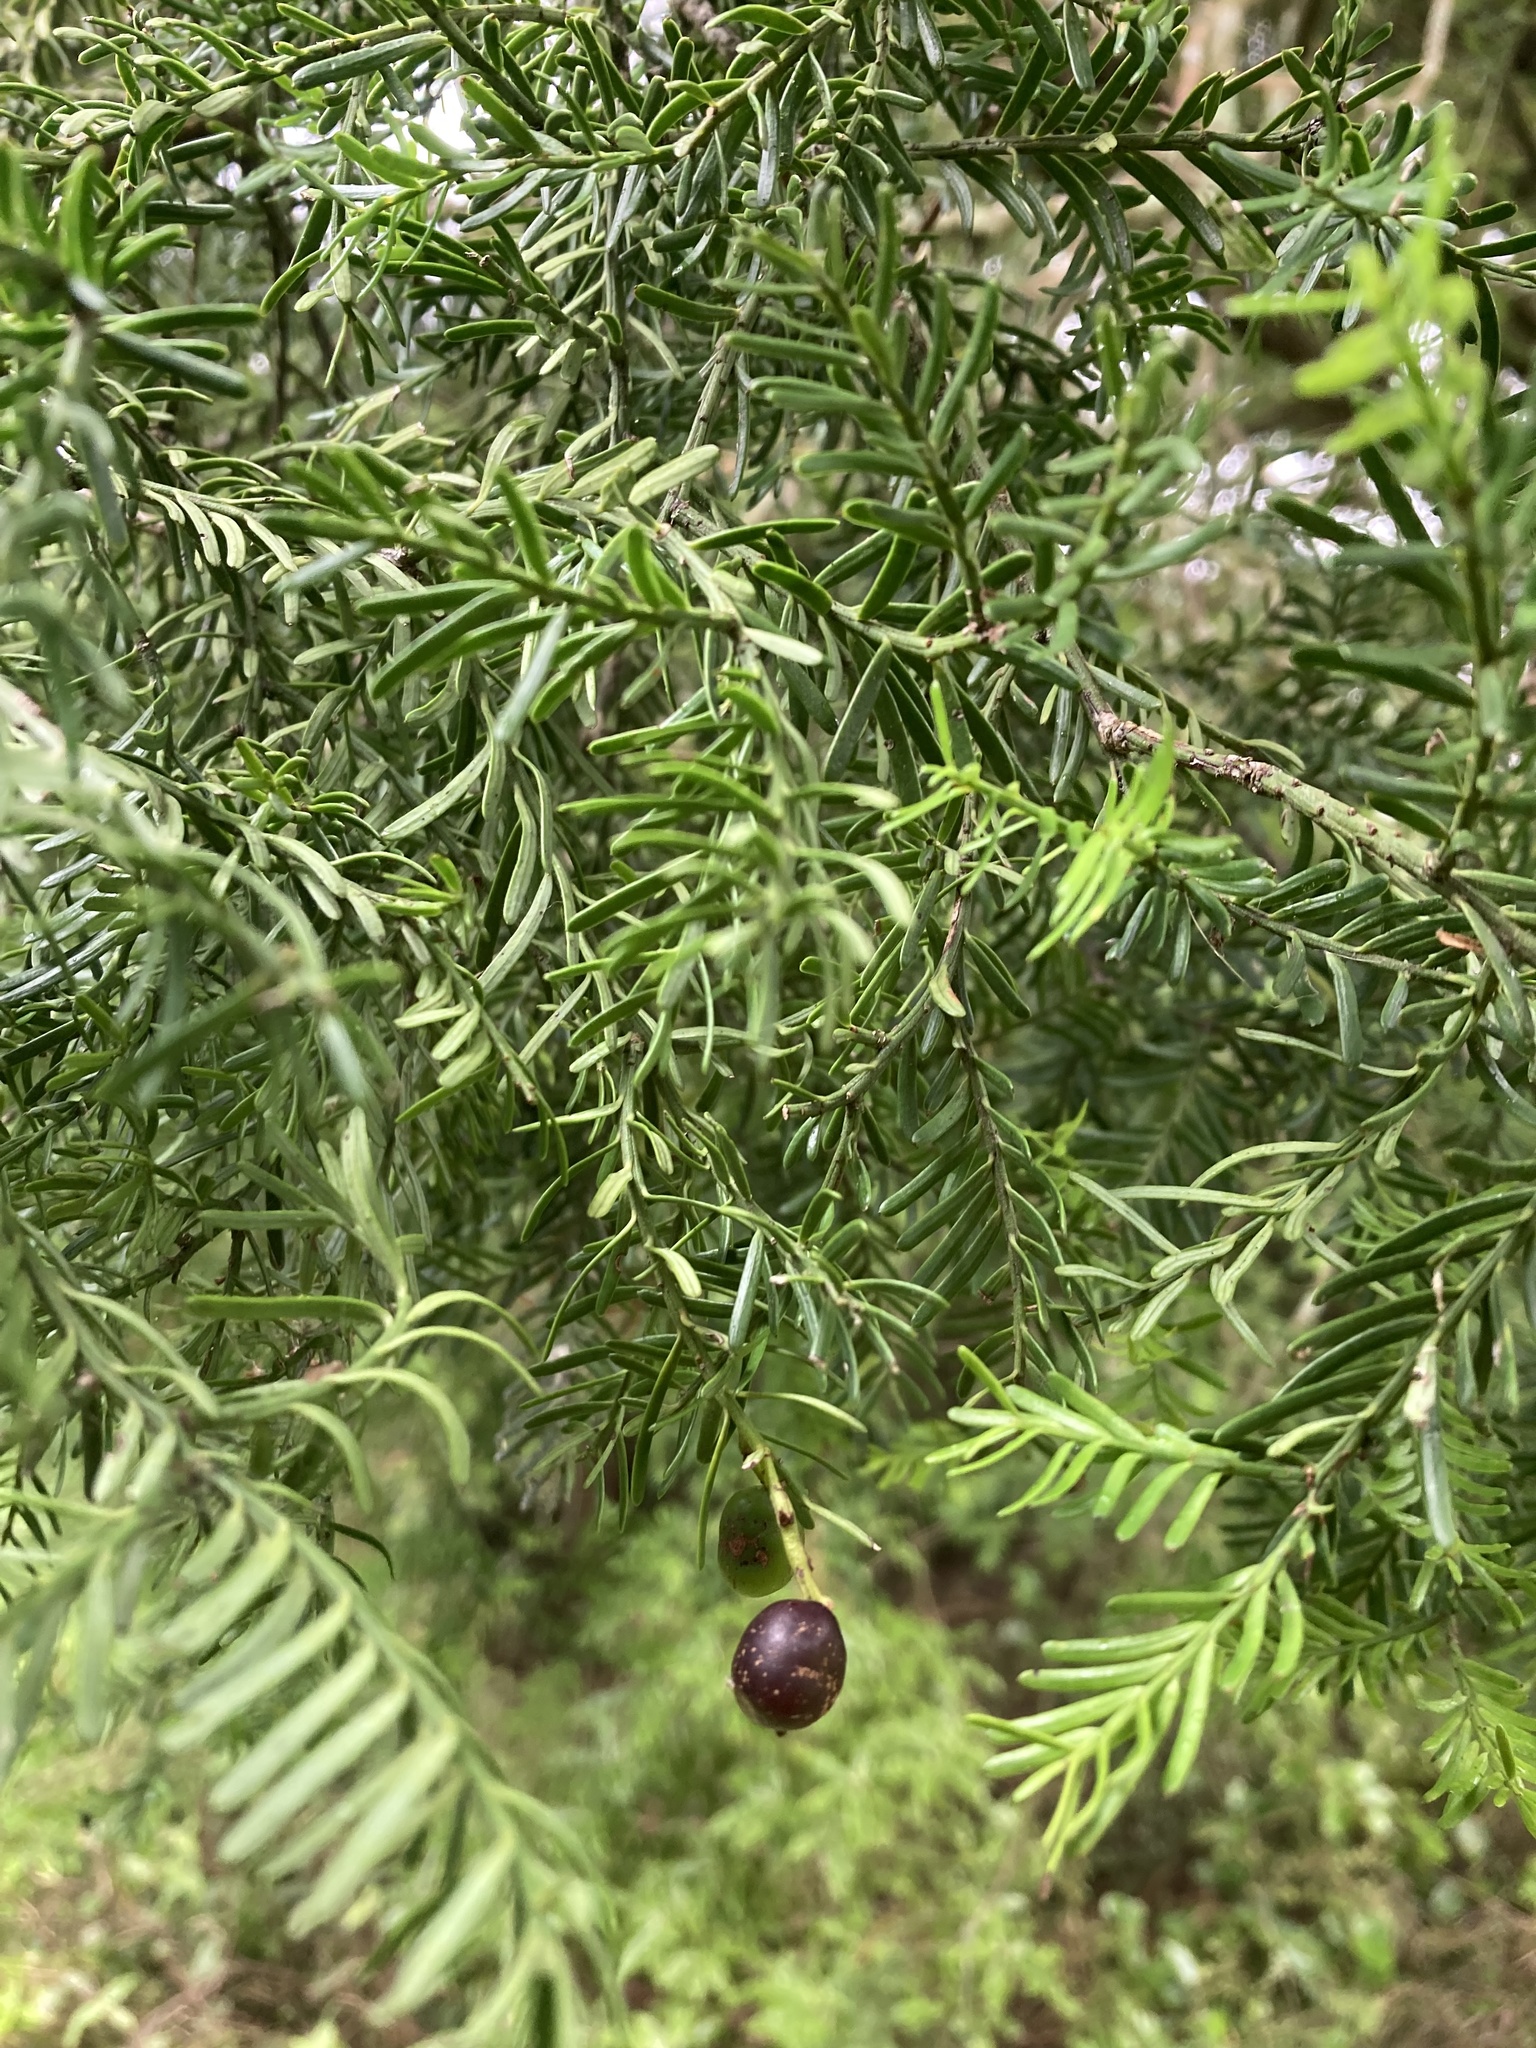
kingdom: Plantae
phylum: Tracheophyta
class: Pinopsida
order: Pinales
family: Podocarpaceae
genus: Prumnopitys
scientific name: Prumnopitys taxifolia
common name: Matai
